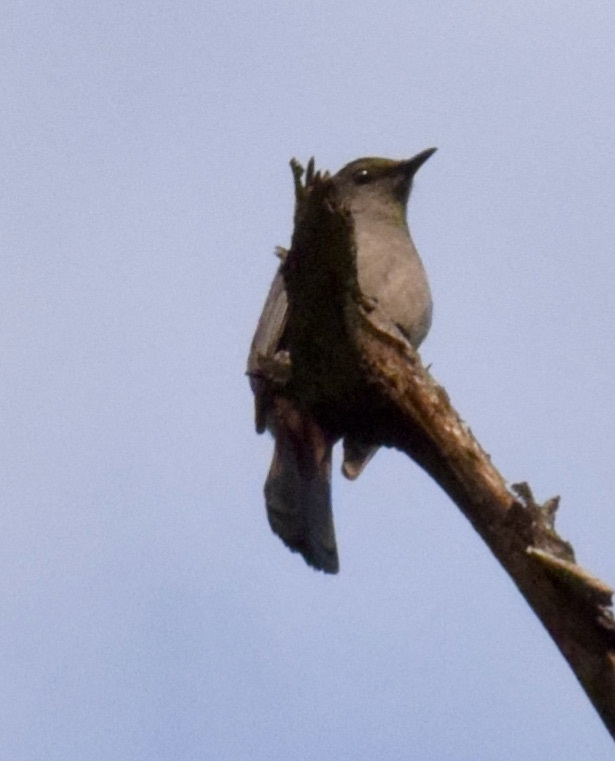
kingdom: Animalia
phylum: Chordata
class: Aves
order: Passeriformes
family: Mimidae
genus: Dumetella
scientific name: Dumetella carolinensis
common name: Gray catbird
